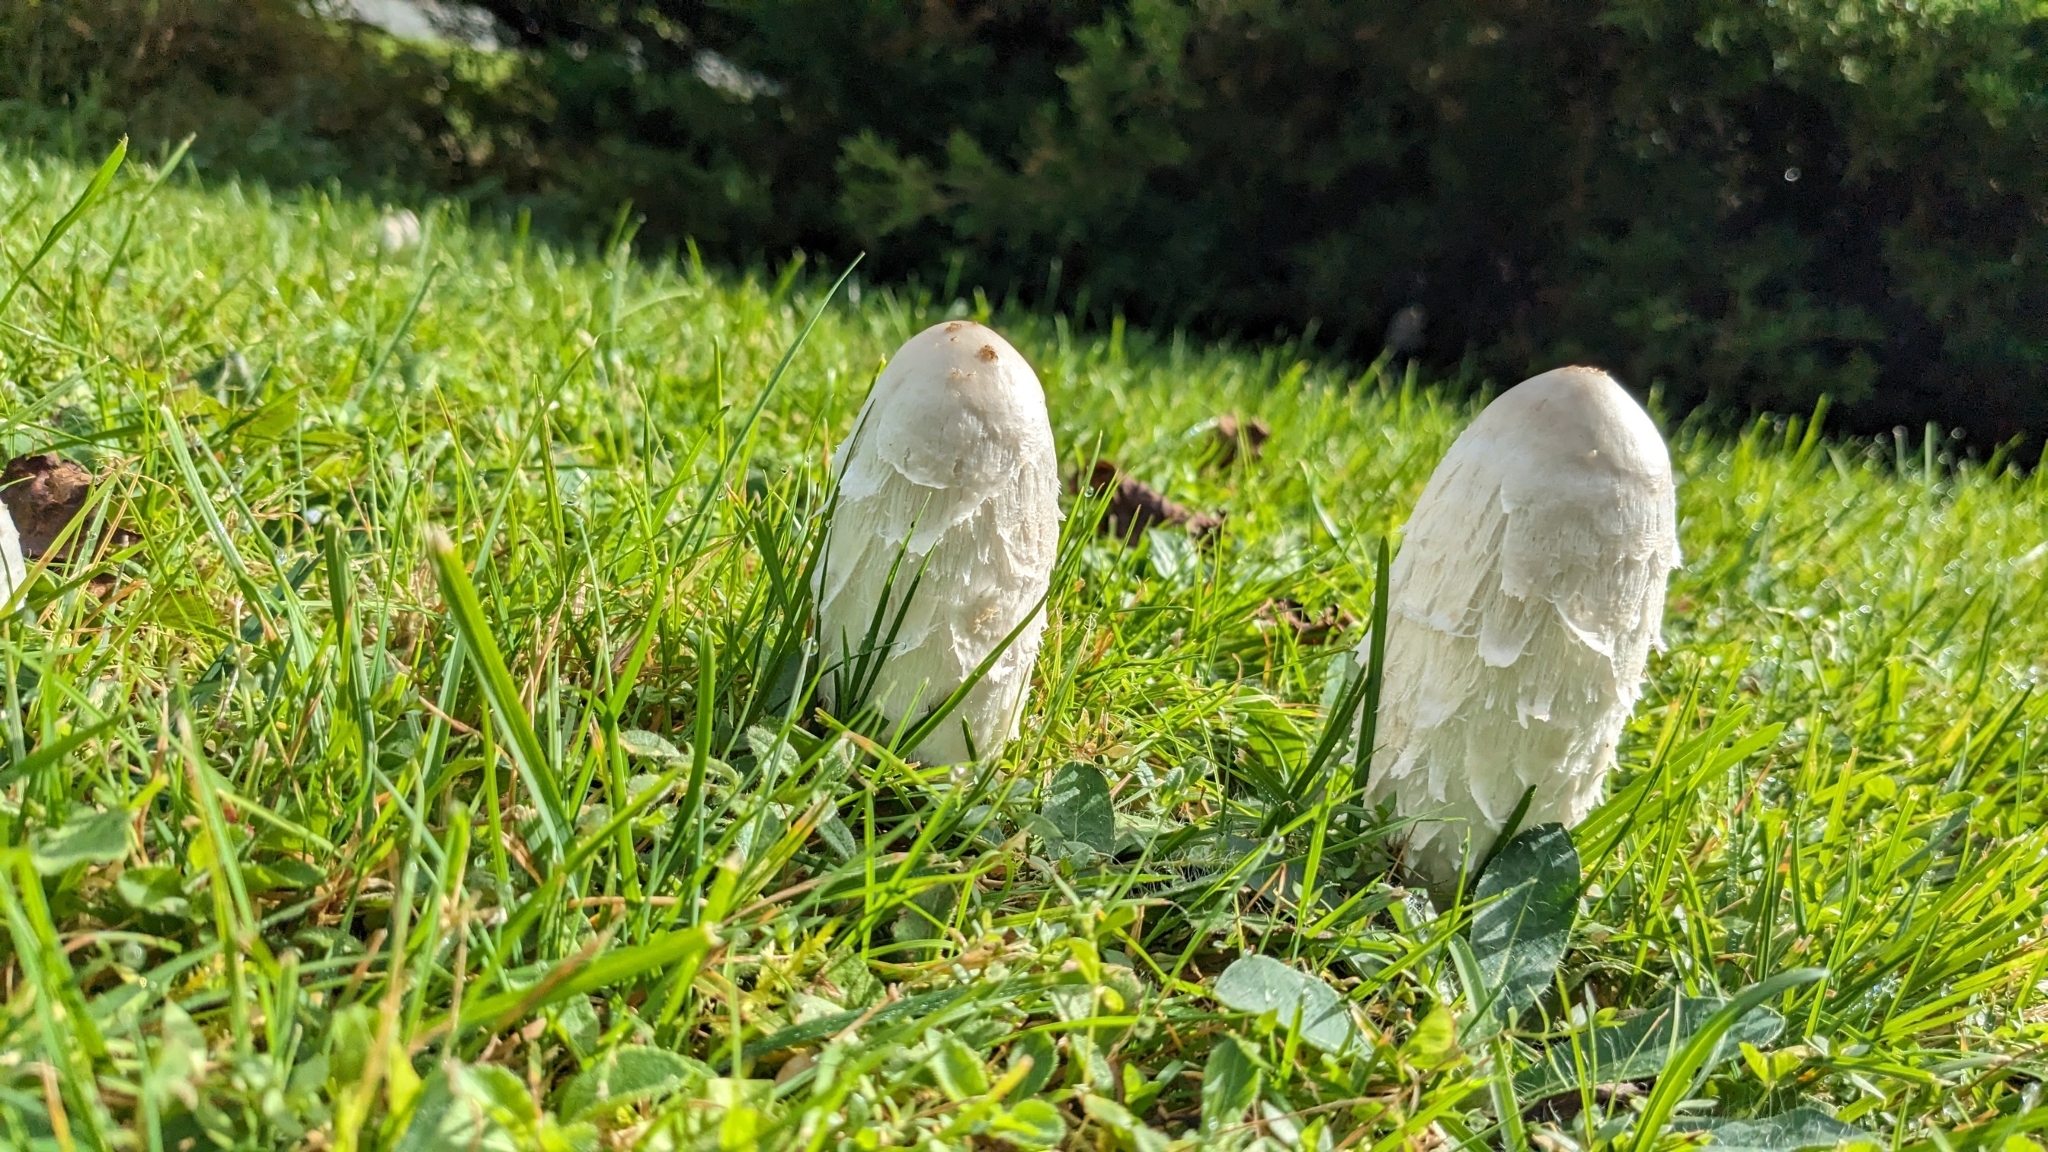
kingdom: Fungi
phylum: Basidiomycota
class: Agaricomycetes
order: Agaricales
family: Agaricaceae
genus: Coprinus
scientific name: Coprinus comatus
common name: Lawyer's wig
